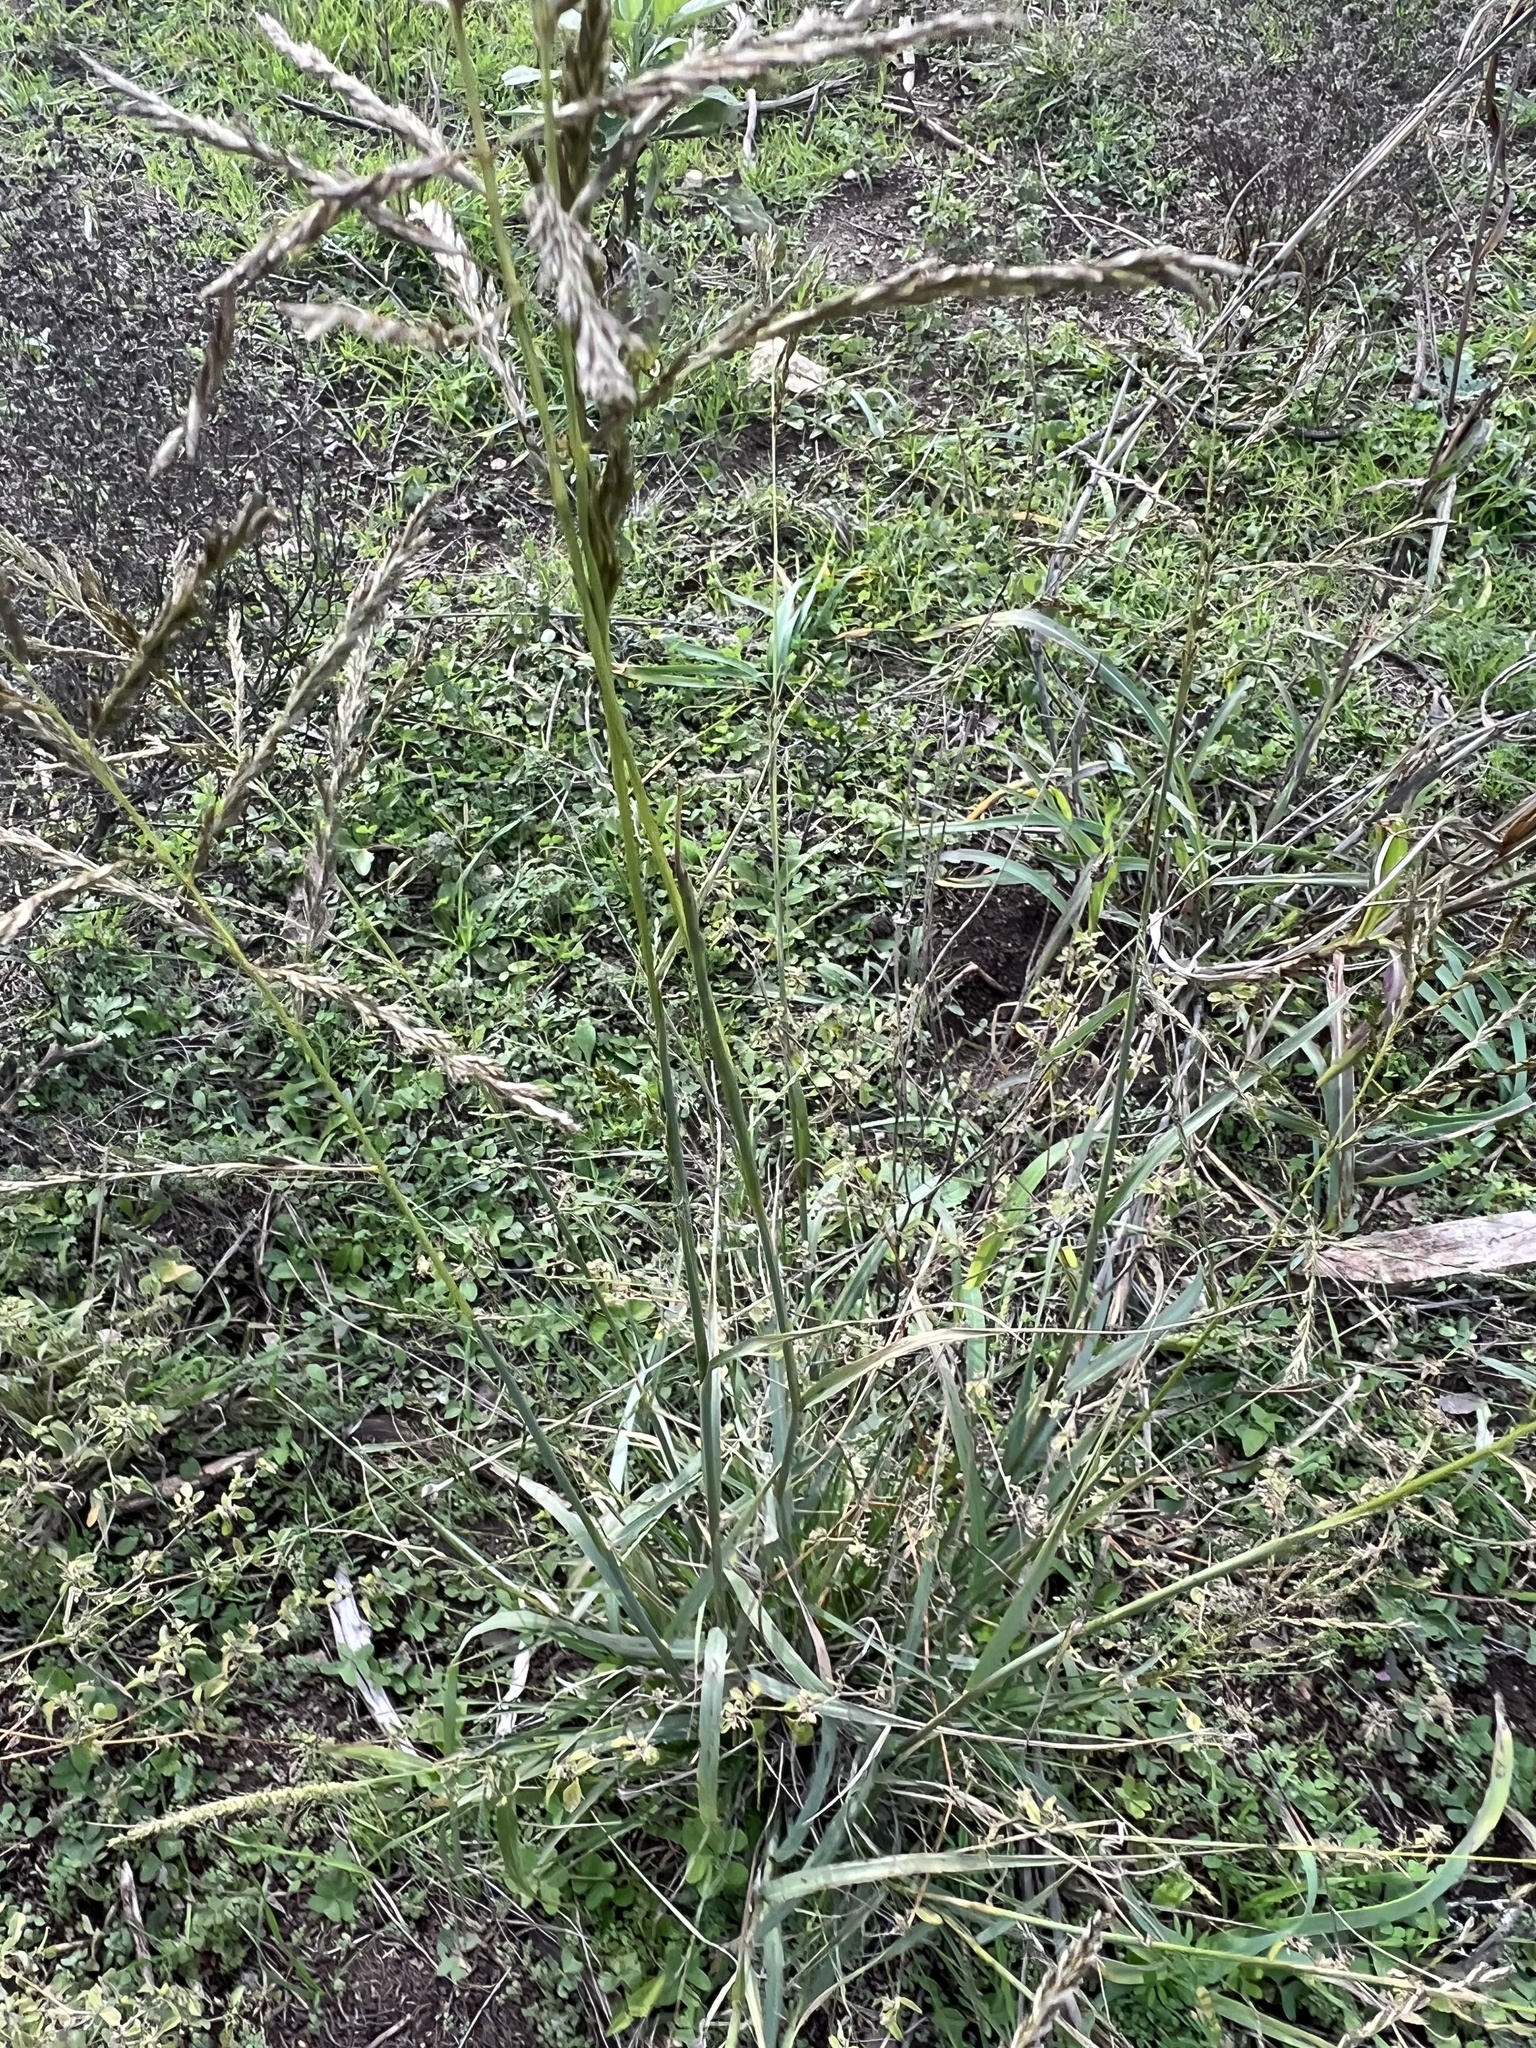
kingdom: Plantae
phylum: Tracheophyta
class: Liliopsida
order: Poales
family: Poaceae
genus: Disakisperma
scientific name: Disakisperma dubium
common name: Green sprangletop
